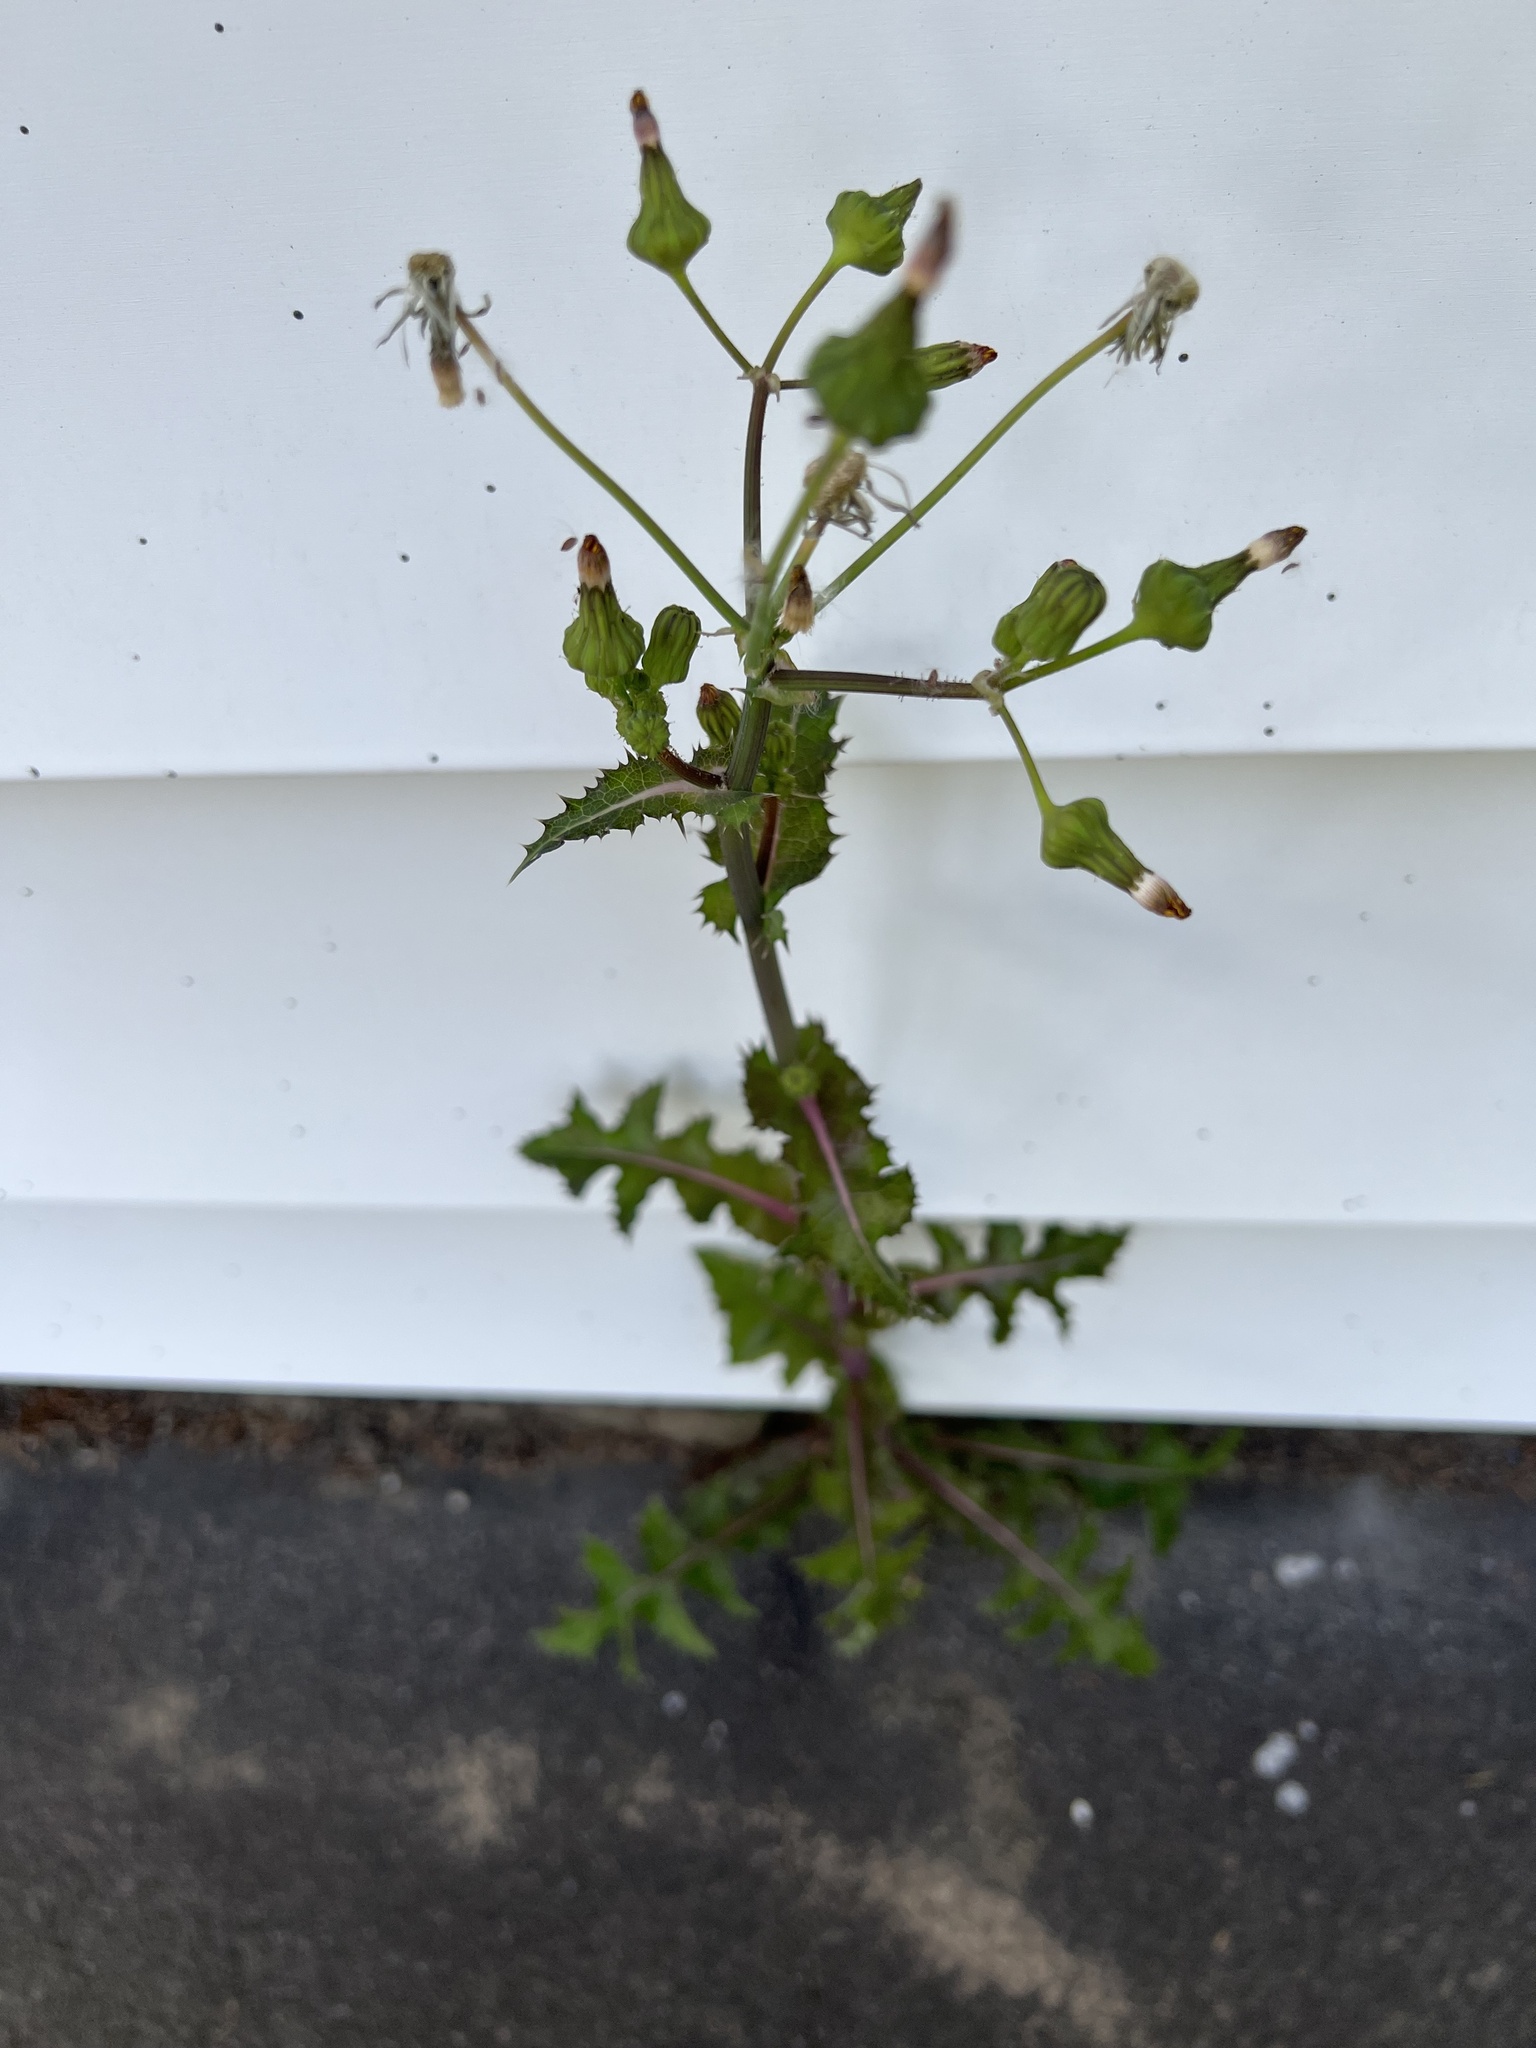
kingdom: Plantae
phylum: Tracheophyta
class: Magnoliopsida
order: Asterales
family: Asteraceae
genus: Sonchus
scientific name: Sonchus oleraceus
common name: Common sowthistle
